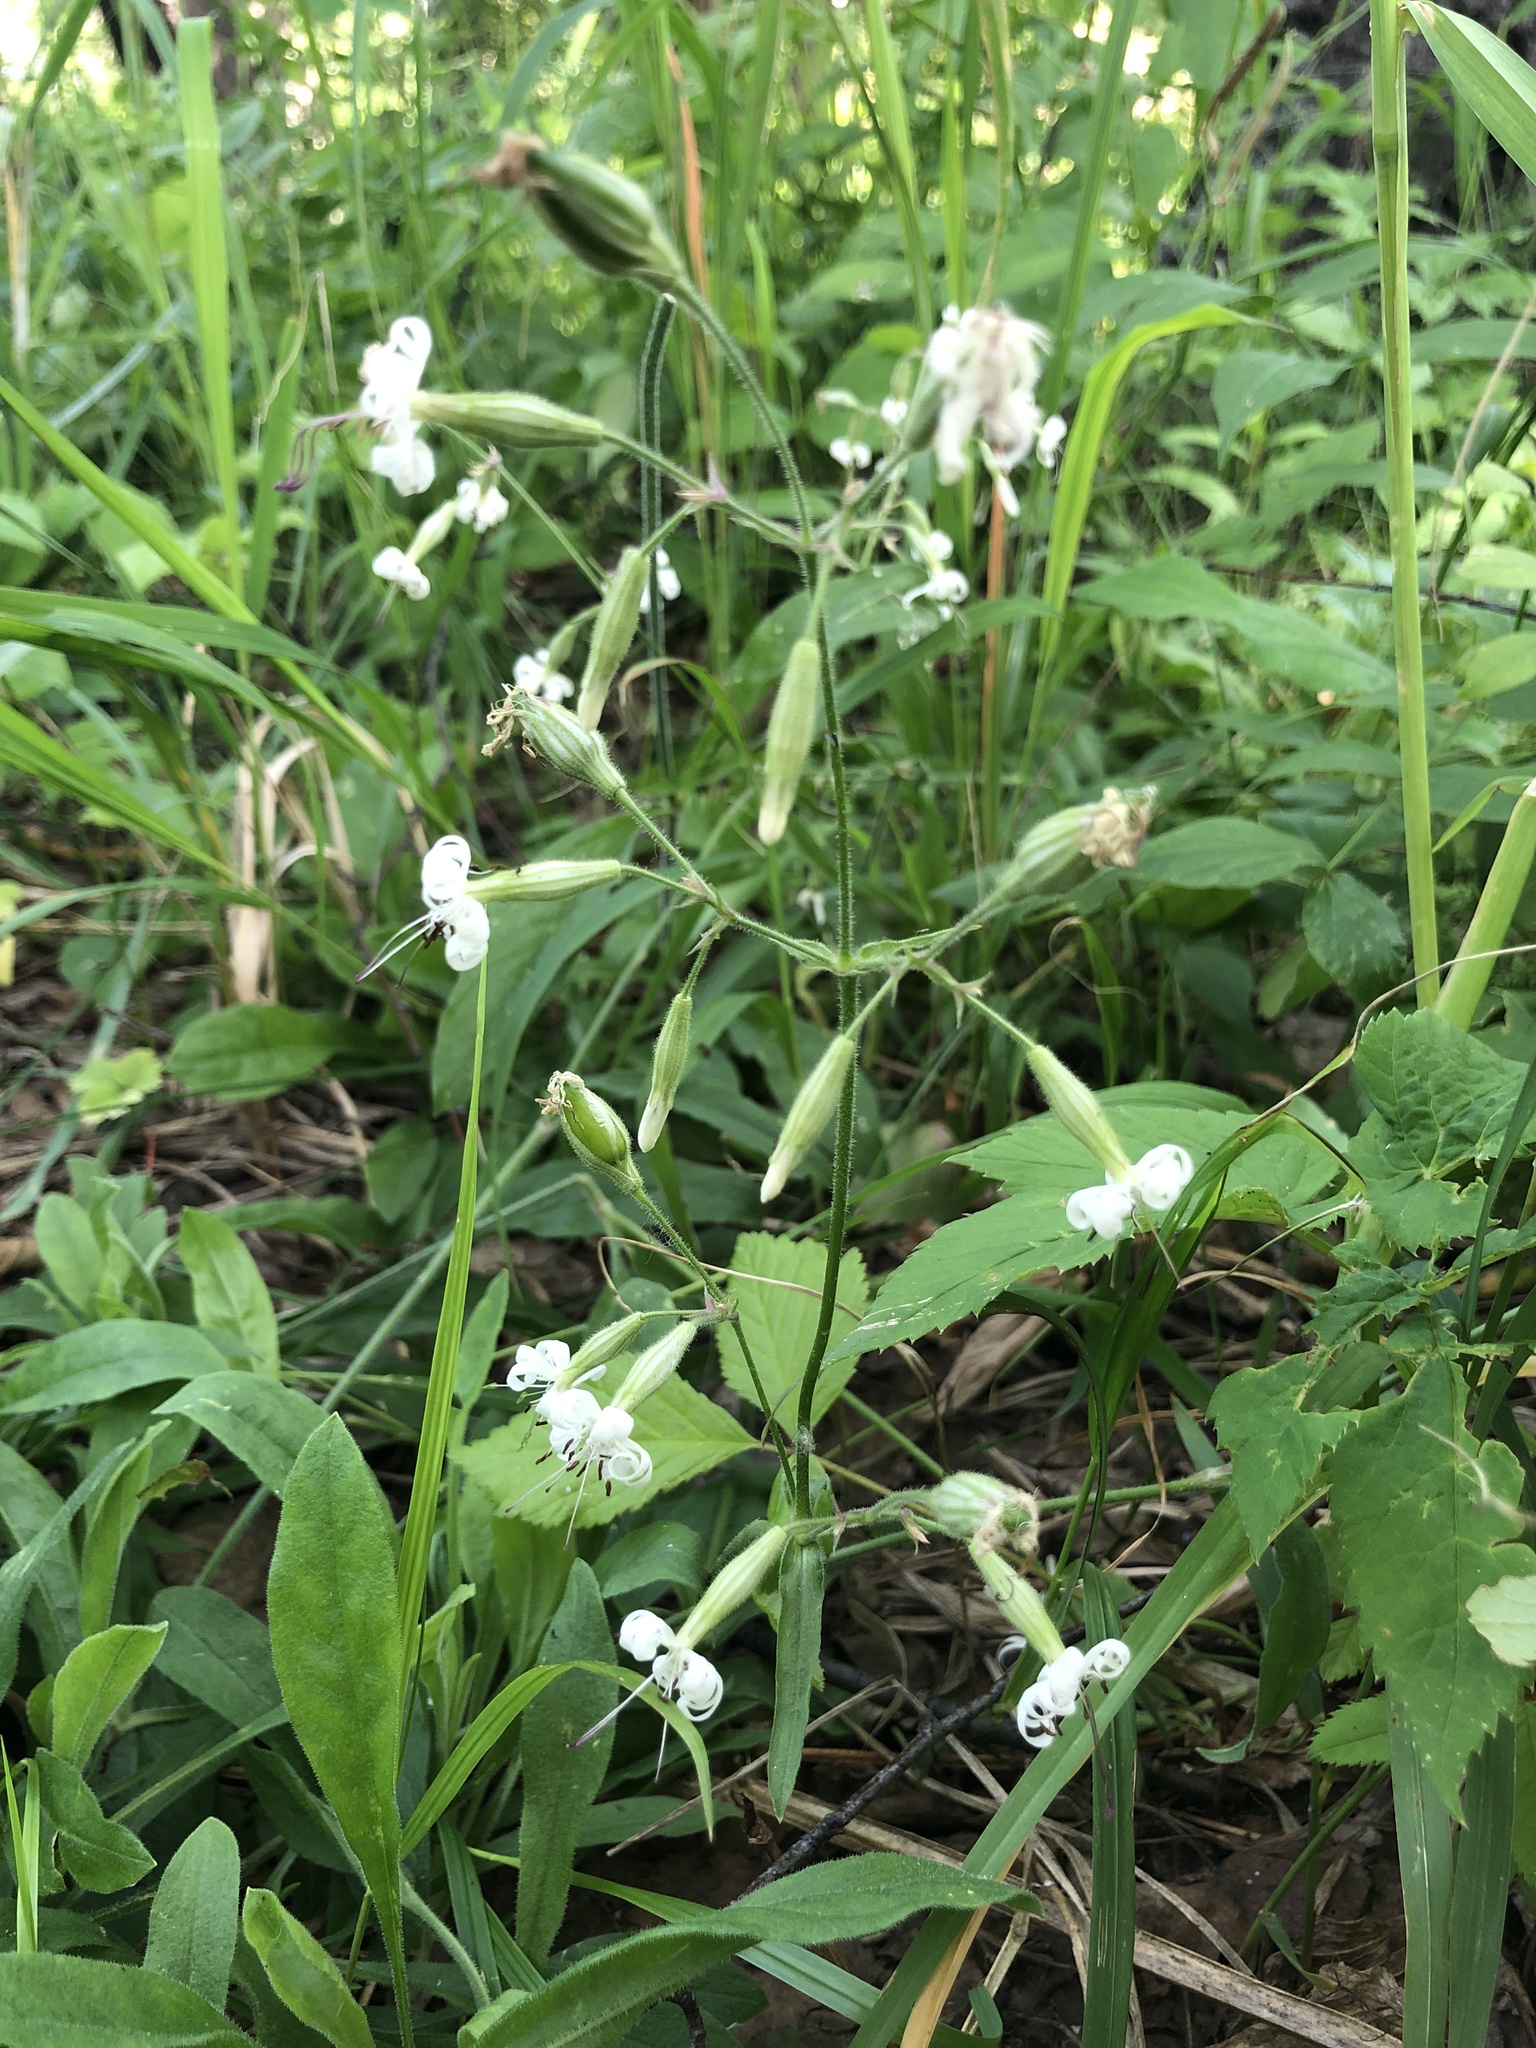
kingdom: Plantae
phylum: Tracheophyta
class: Magnoliopsida
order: Caryophyllales
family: Caryophyllaceae
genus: Silene
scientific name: Silene nutans
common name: Nottingham catchfly
